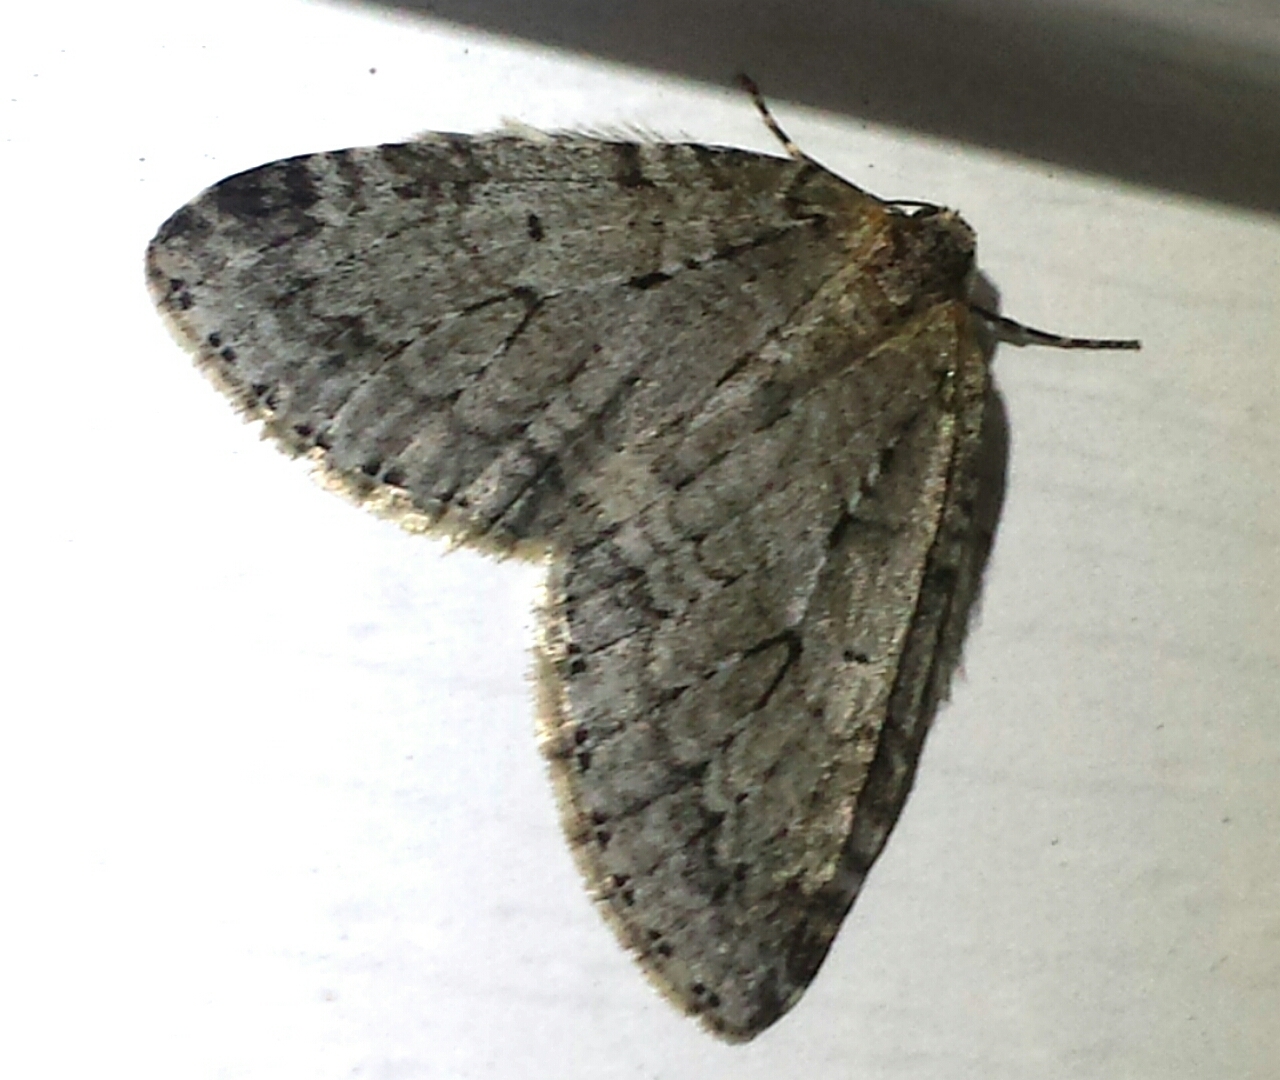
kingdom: Animalia
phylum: Arthropoda
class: Insecta
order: Lepidoptera
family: Geometridae
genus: Epirrita
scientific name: Epirrita autumnata
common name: Autumnal moth
